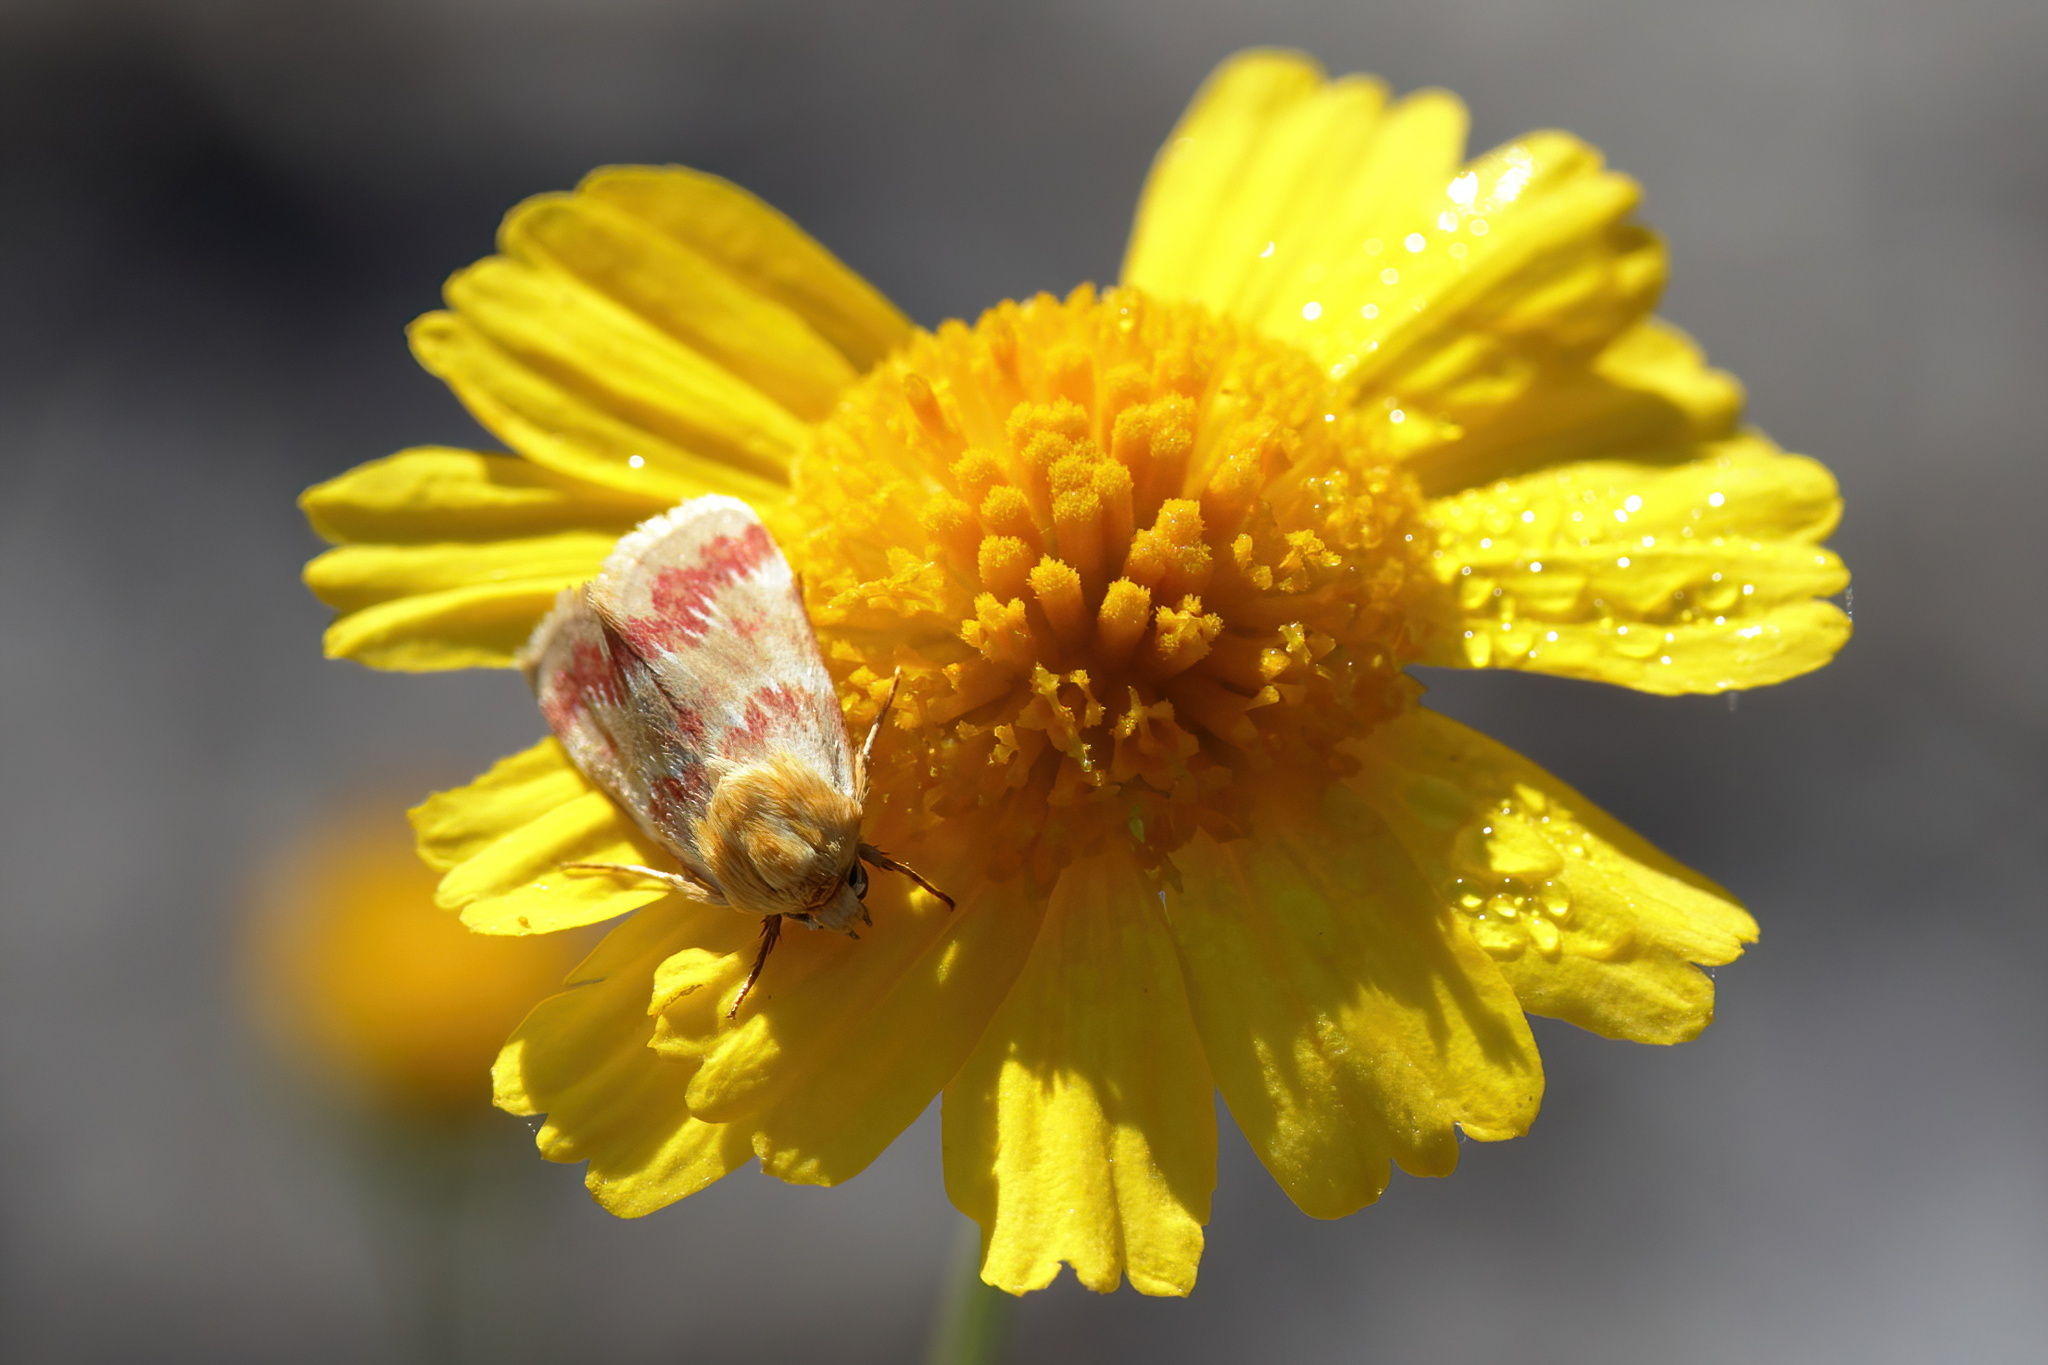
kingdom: Animalia
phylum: Arthropoda
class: Insecta
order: Lepidoptera
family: Noctuidae
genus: Schinia
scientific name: Schinia fulleri
